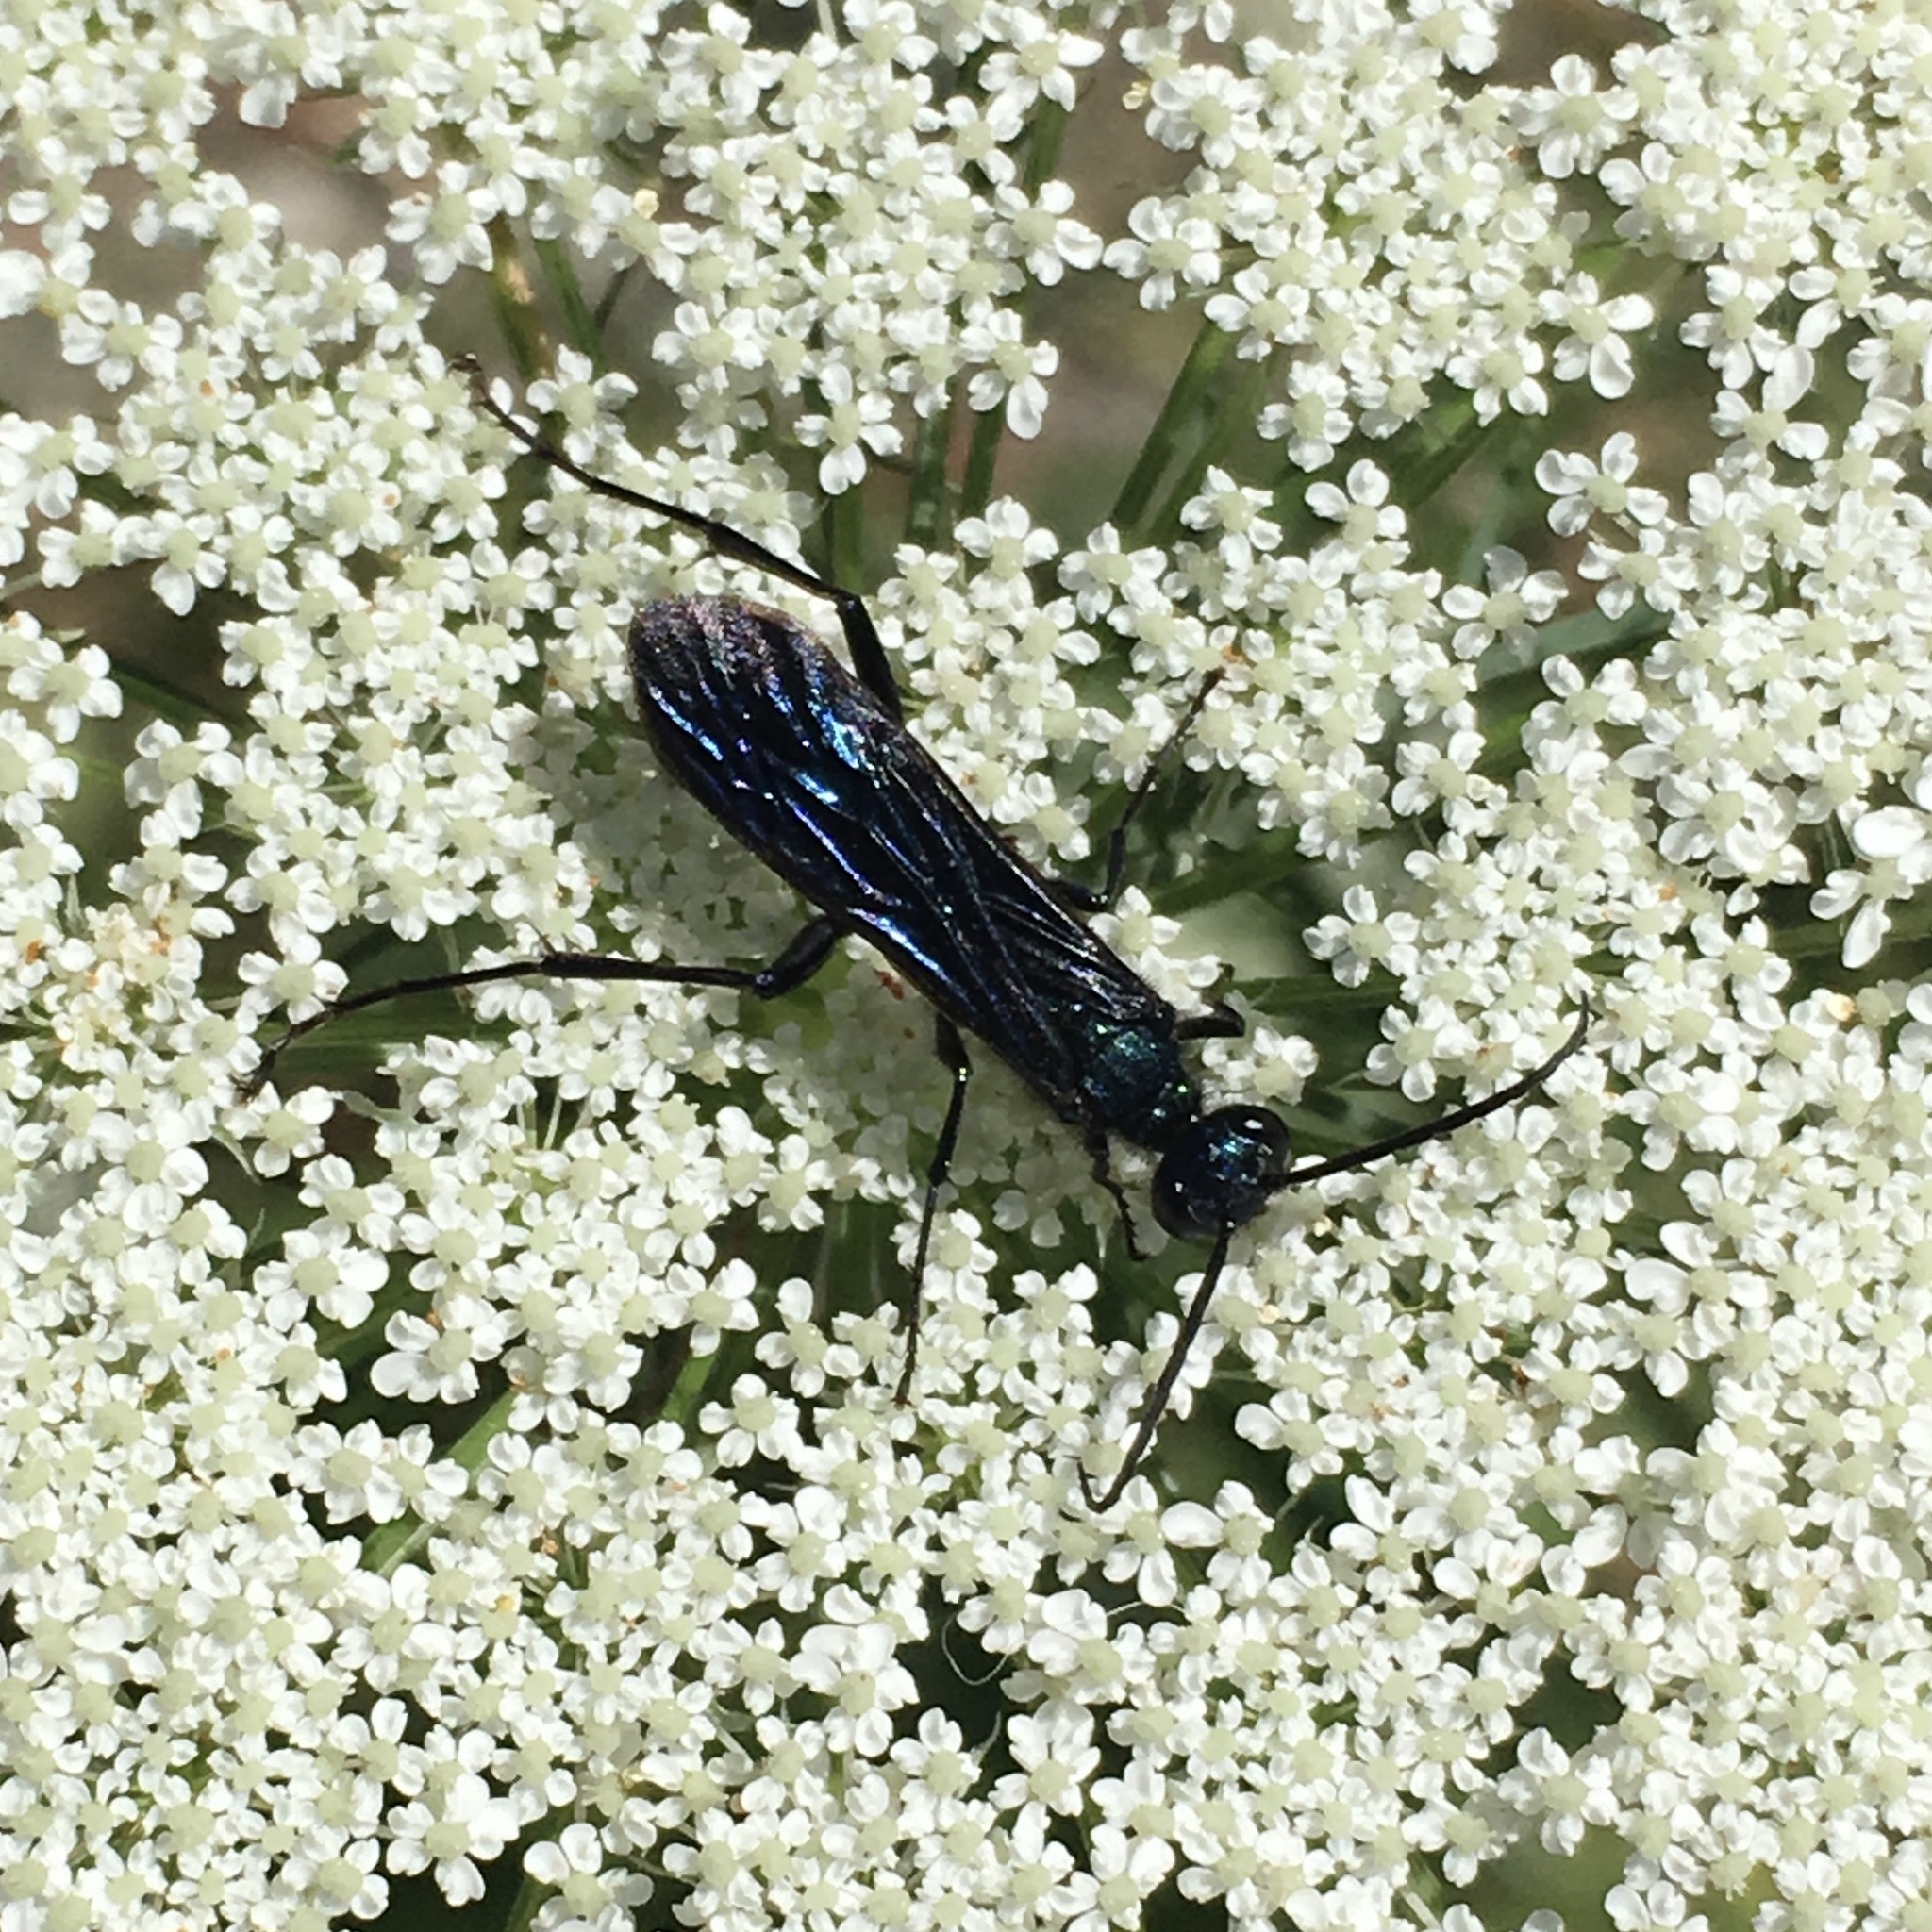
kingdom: Animalia
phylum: Arthropoda
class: Insecta
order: Hymenoptera
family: Sphecidae
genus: Chalybion
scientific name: Chalybion californicum
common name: Mud dauber
